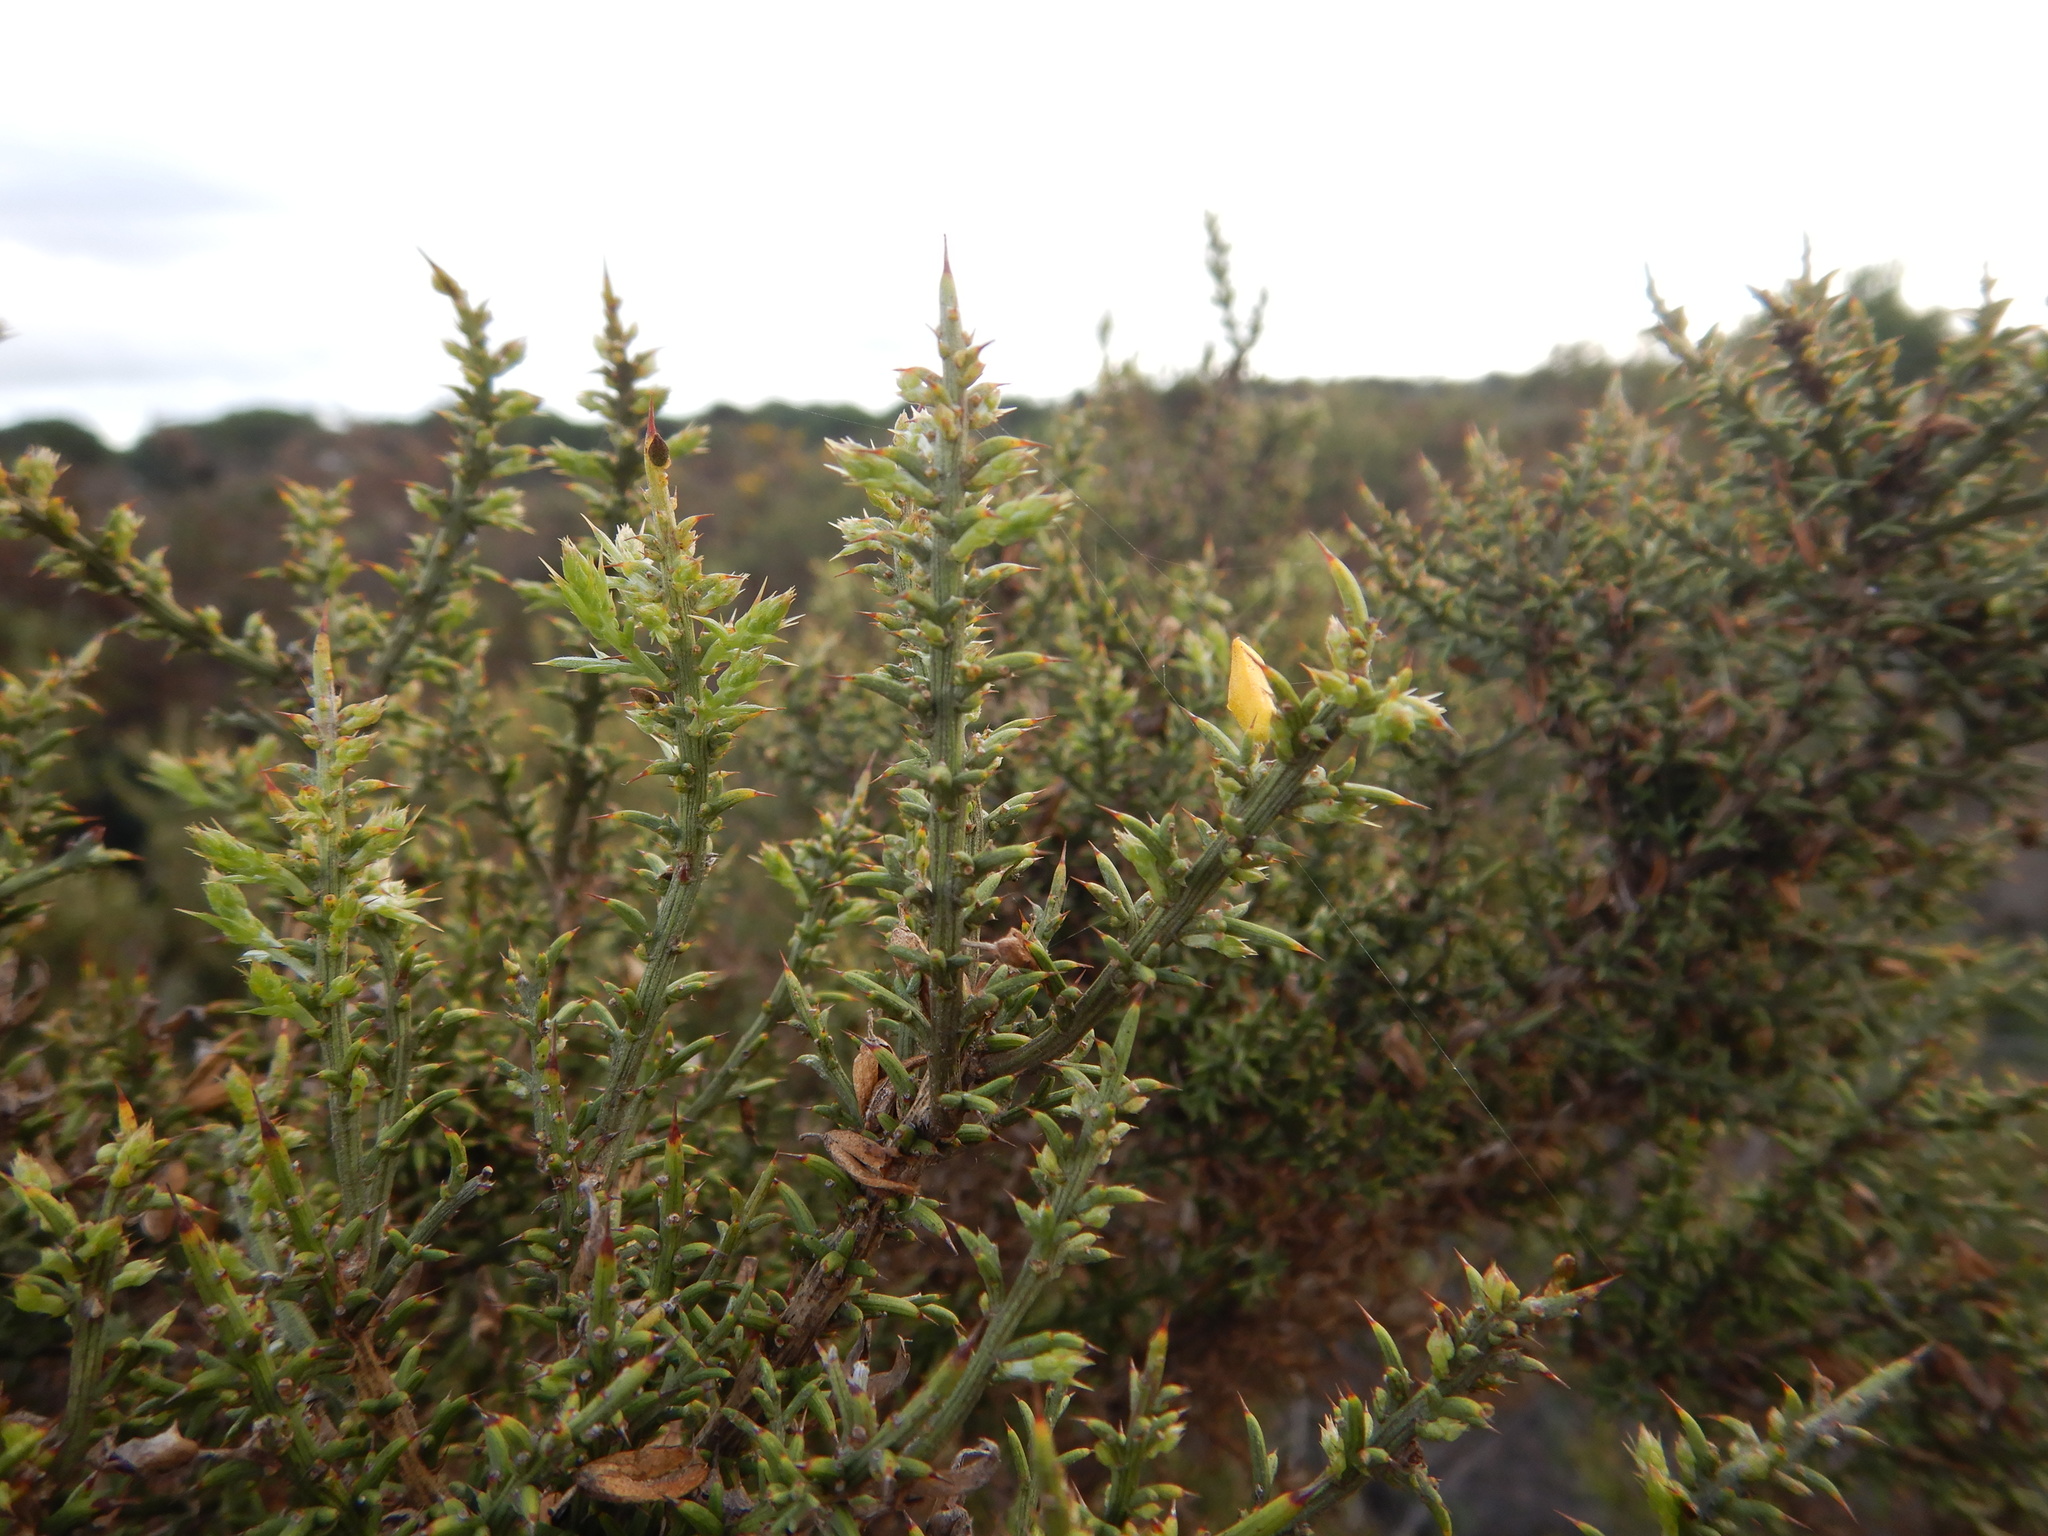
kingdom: Plantae
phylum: Tracheophyta
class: Magnoliopsida
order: Fabales
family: Fabaceae
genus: Ulex
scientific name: Ulex argenteus
